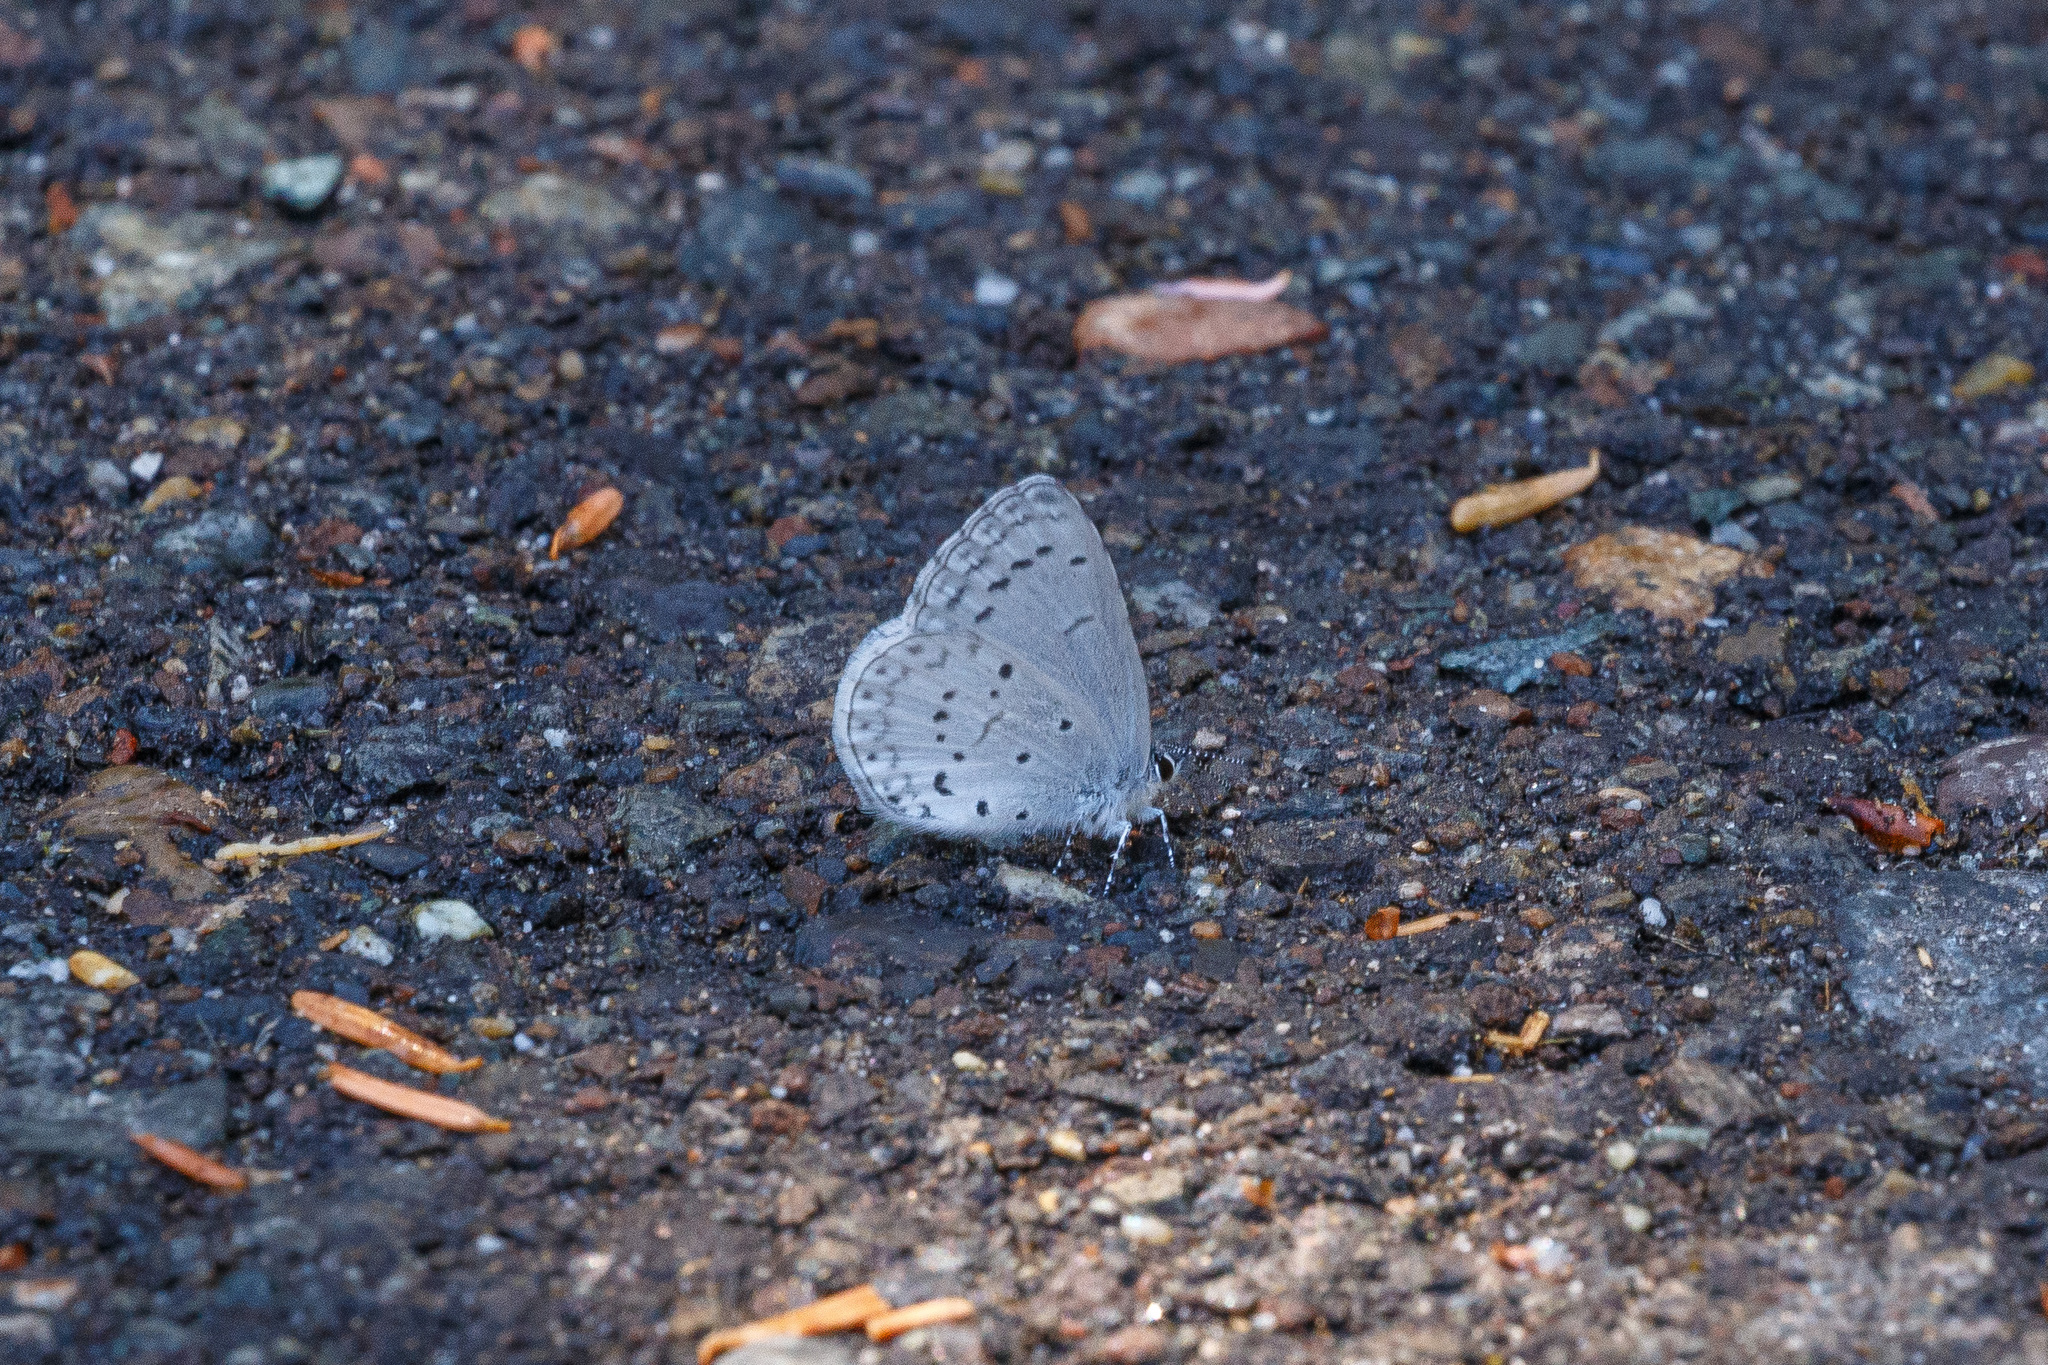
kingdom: Animalia
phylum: Arthropoda
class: Insecta
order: Lepidoptera
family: Lycaenidae
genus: Celastrina
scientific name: Celastrina ladon
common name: Spring azure
